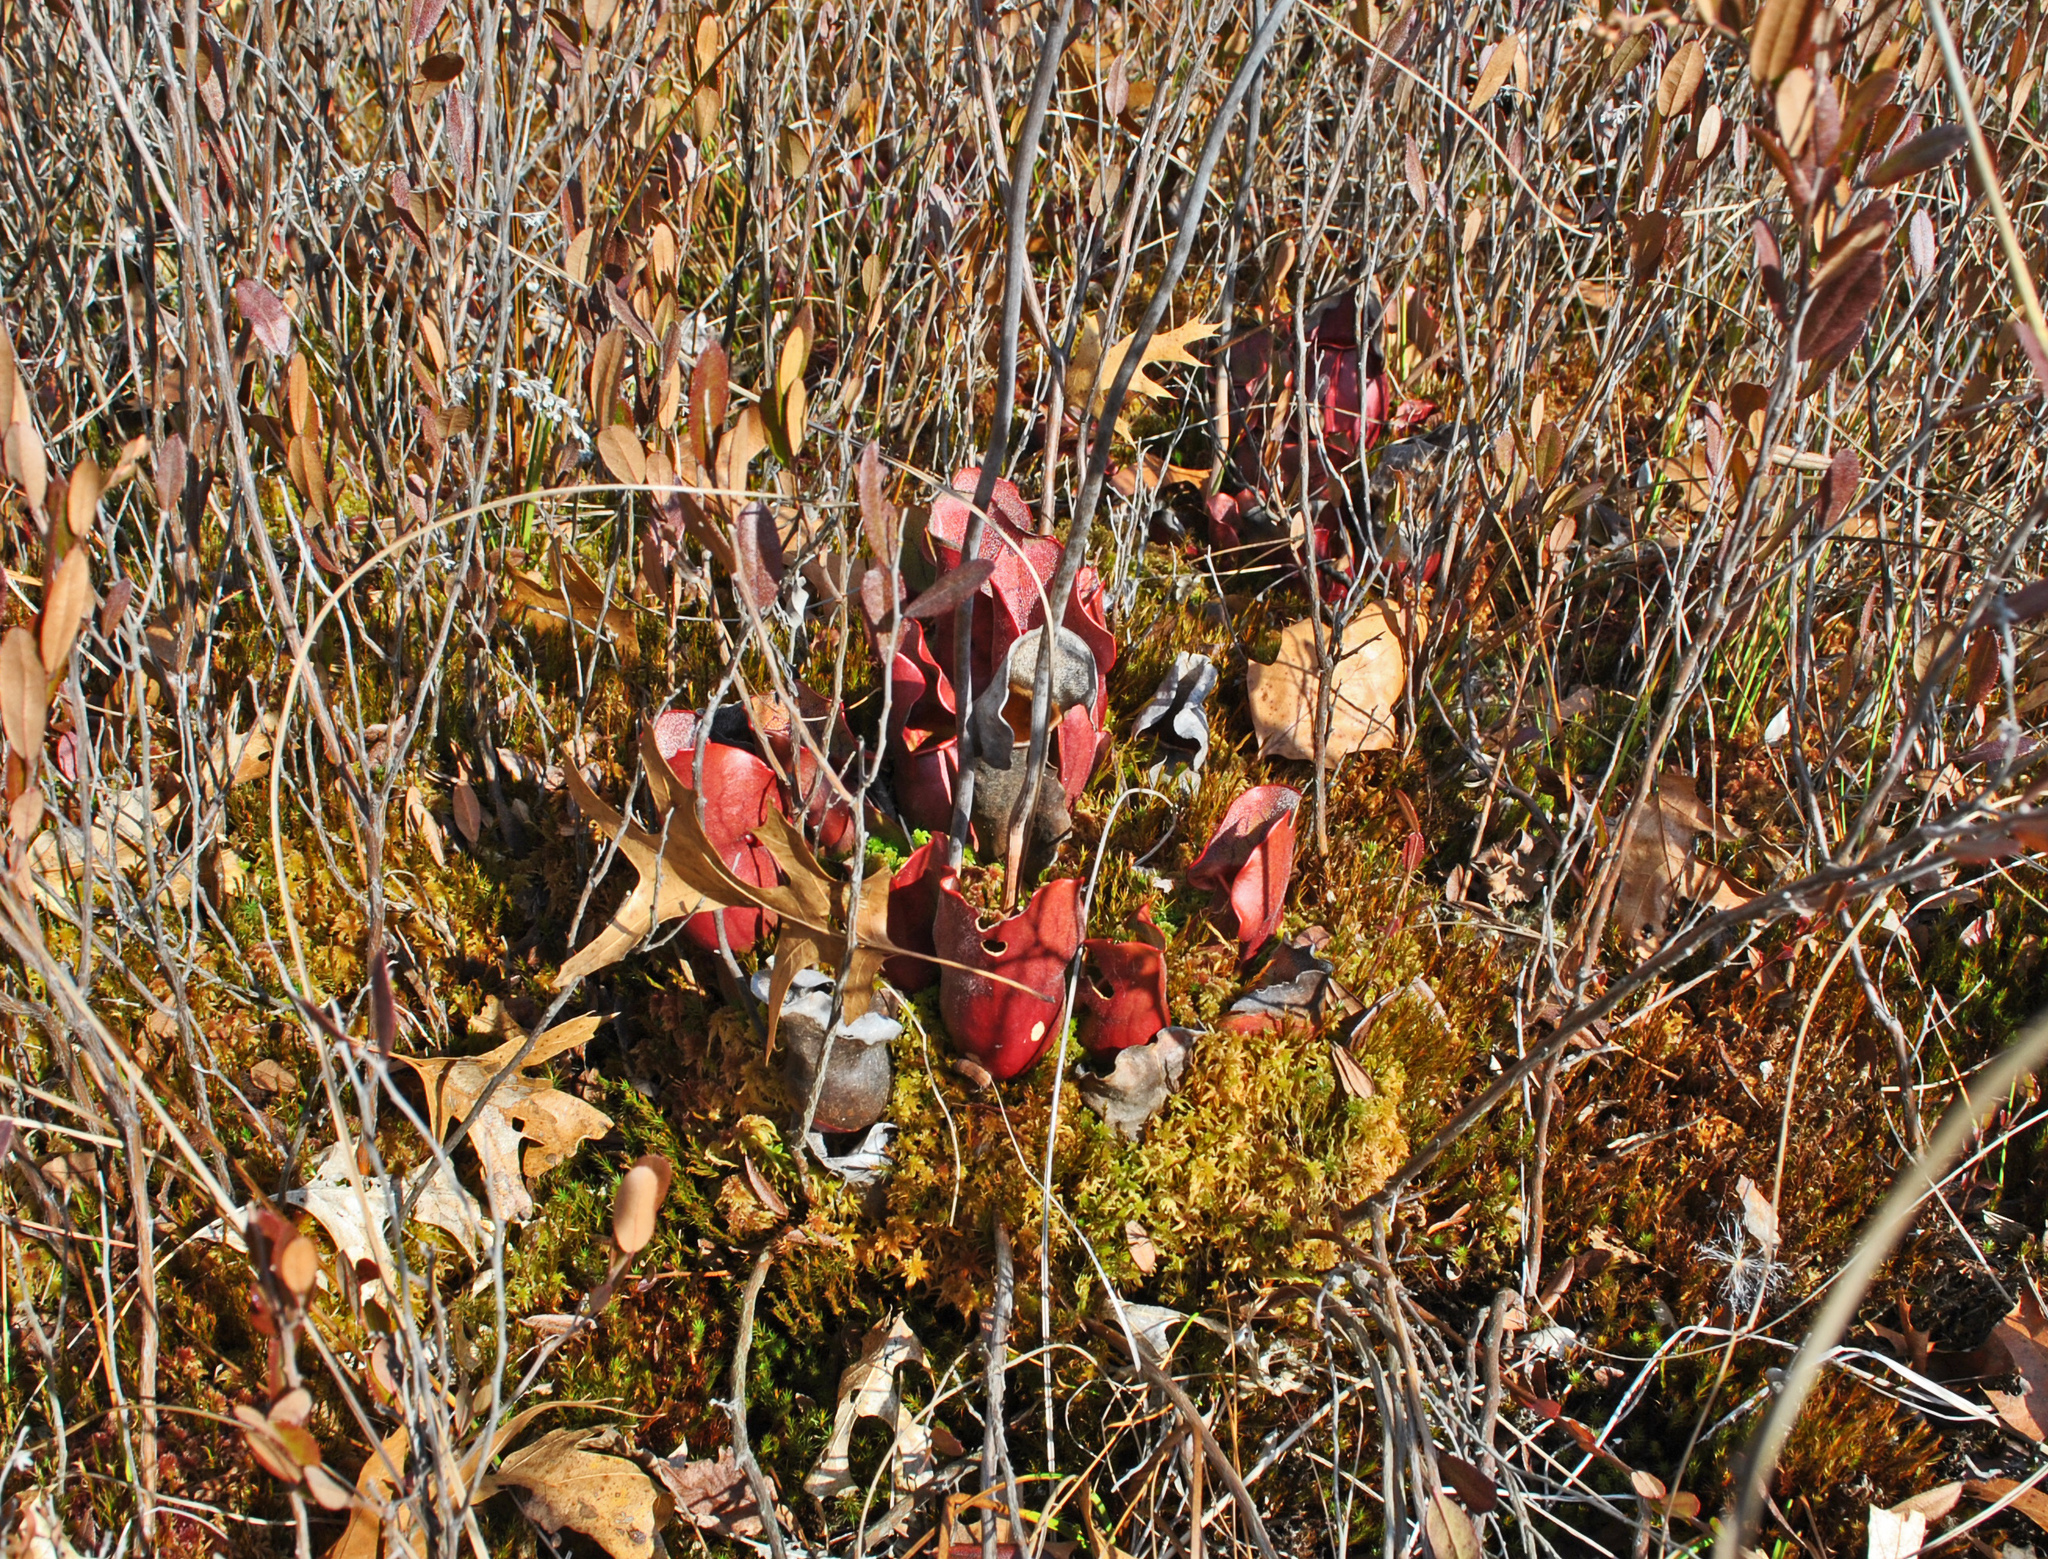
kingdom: Plantae
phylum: Tracheophyta
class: Magnoliopsida
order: Ericales
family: Sarraceniaceae
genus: Sarracenia
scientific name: Sarracenia purpurea
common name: Pitcherplant
